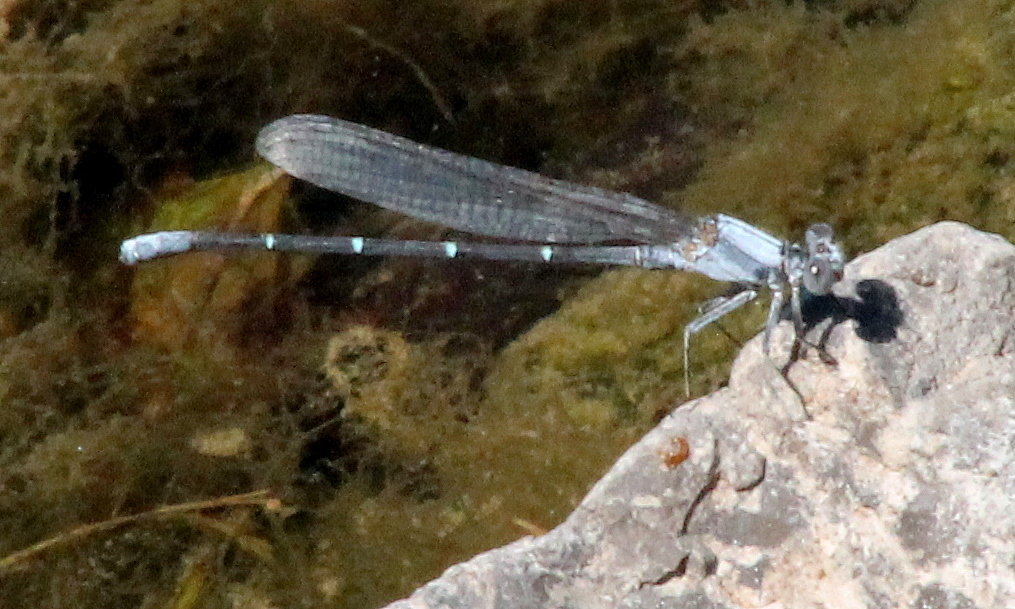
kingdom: Animalia
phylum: Arthropoda
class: Insecta
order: Odonata
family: Coenagrionidae
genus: Argia
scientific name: Argia moesta
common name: Powdered dancer
